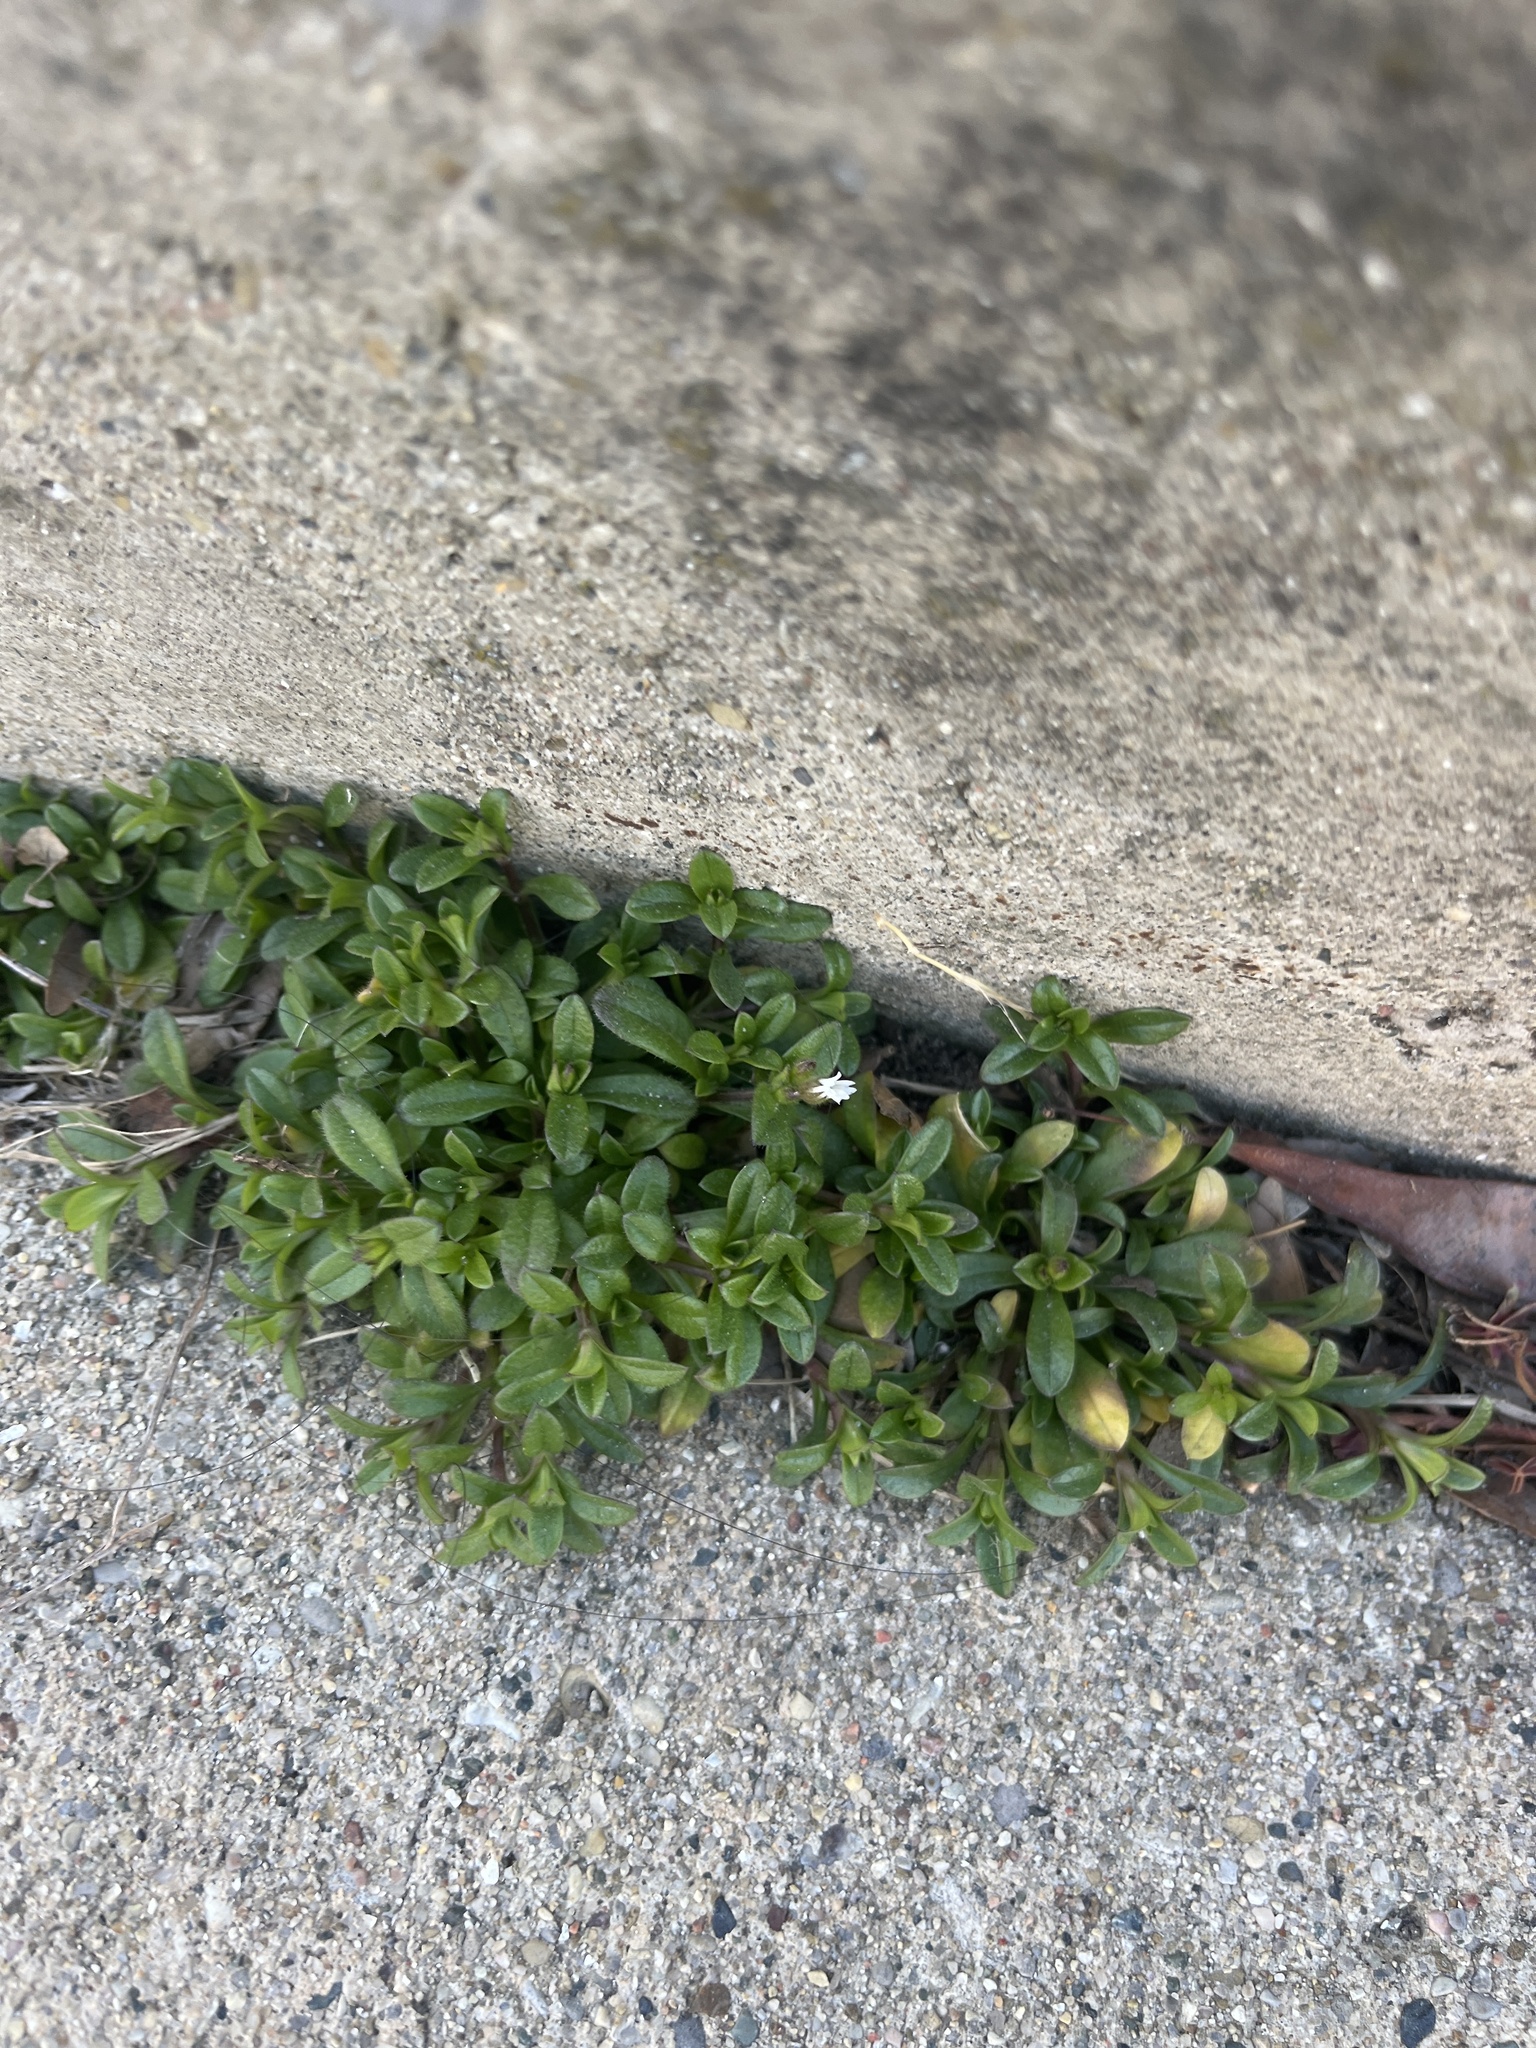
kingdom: Plantae
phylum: Tracheophyta
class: Magnoliopsida
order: Caryophyllales
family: Caryophyllaceae
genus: Cerastium
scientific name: Cerastium fontanum
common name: Common mouse-ear
